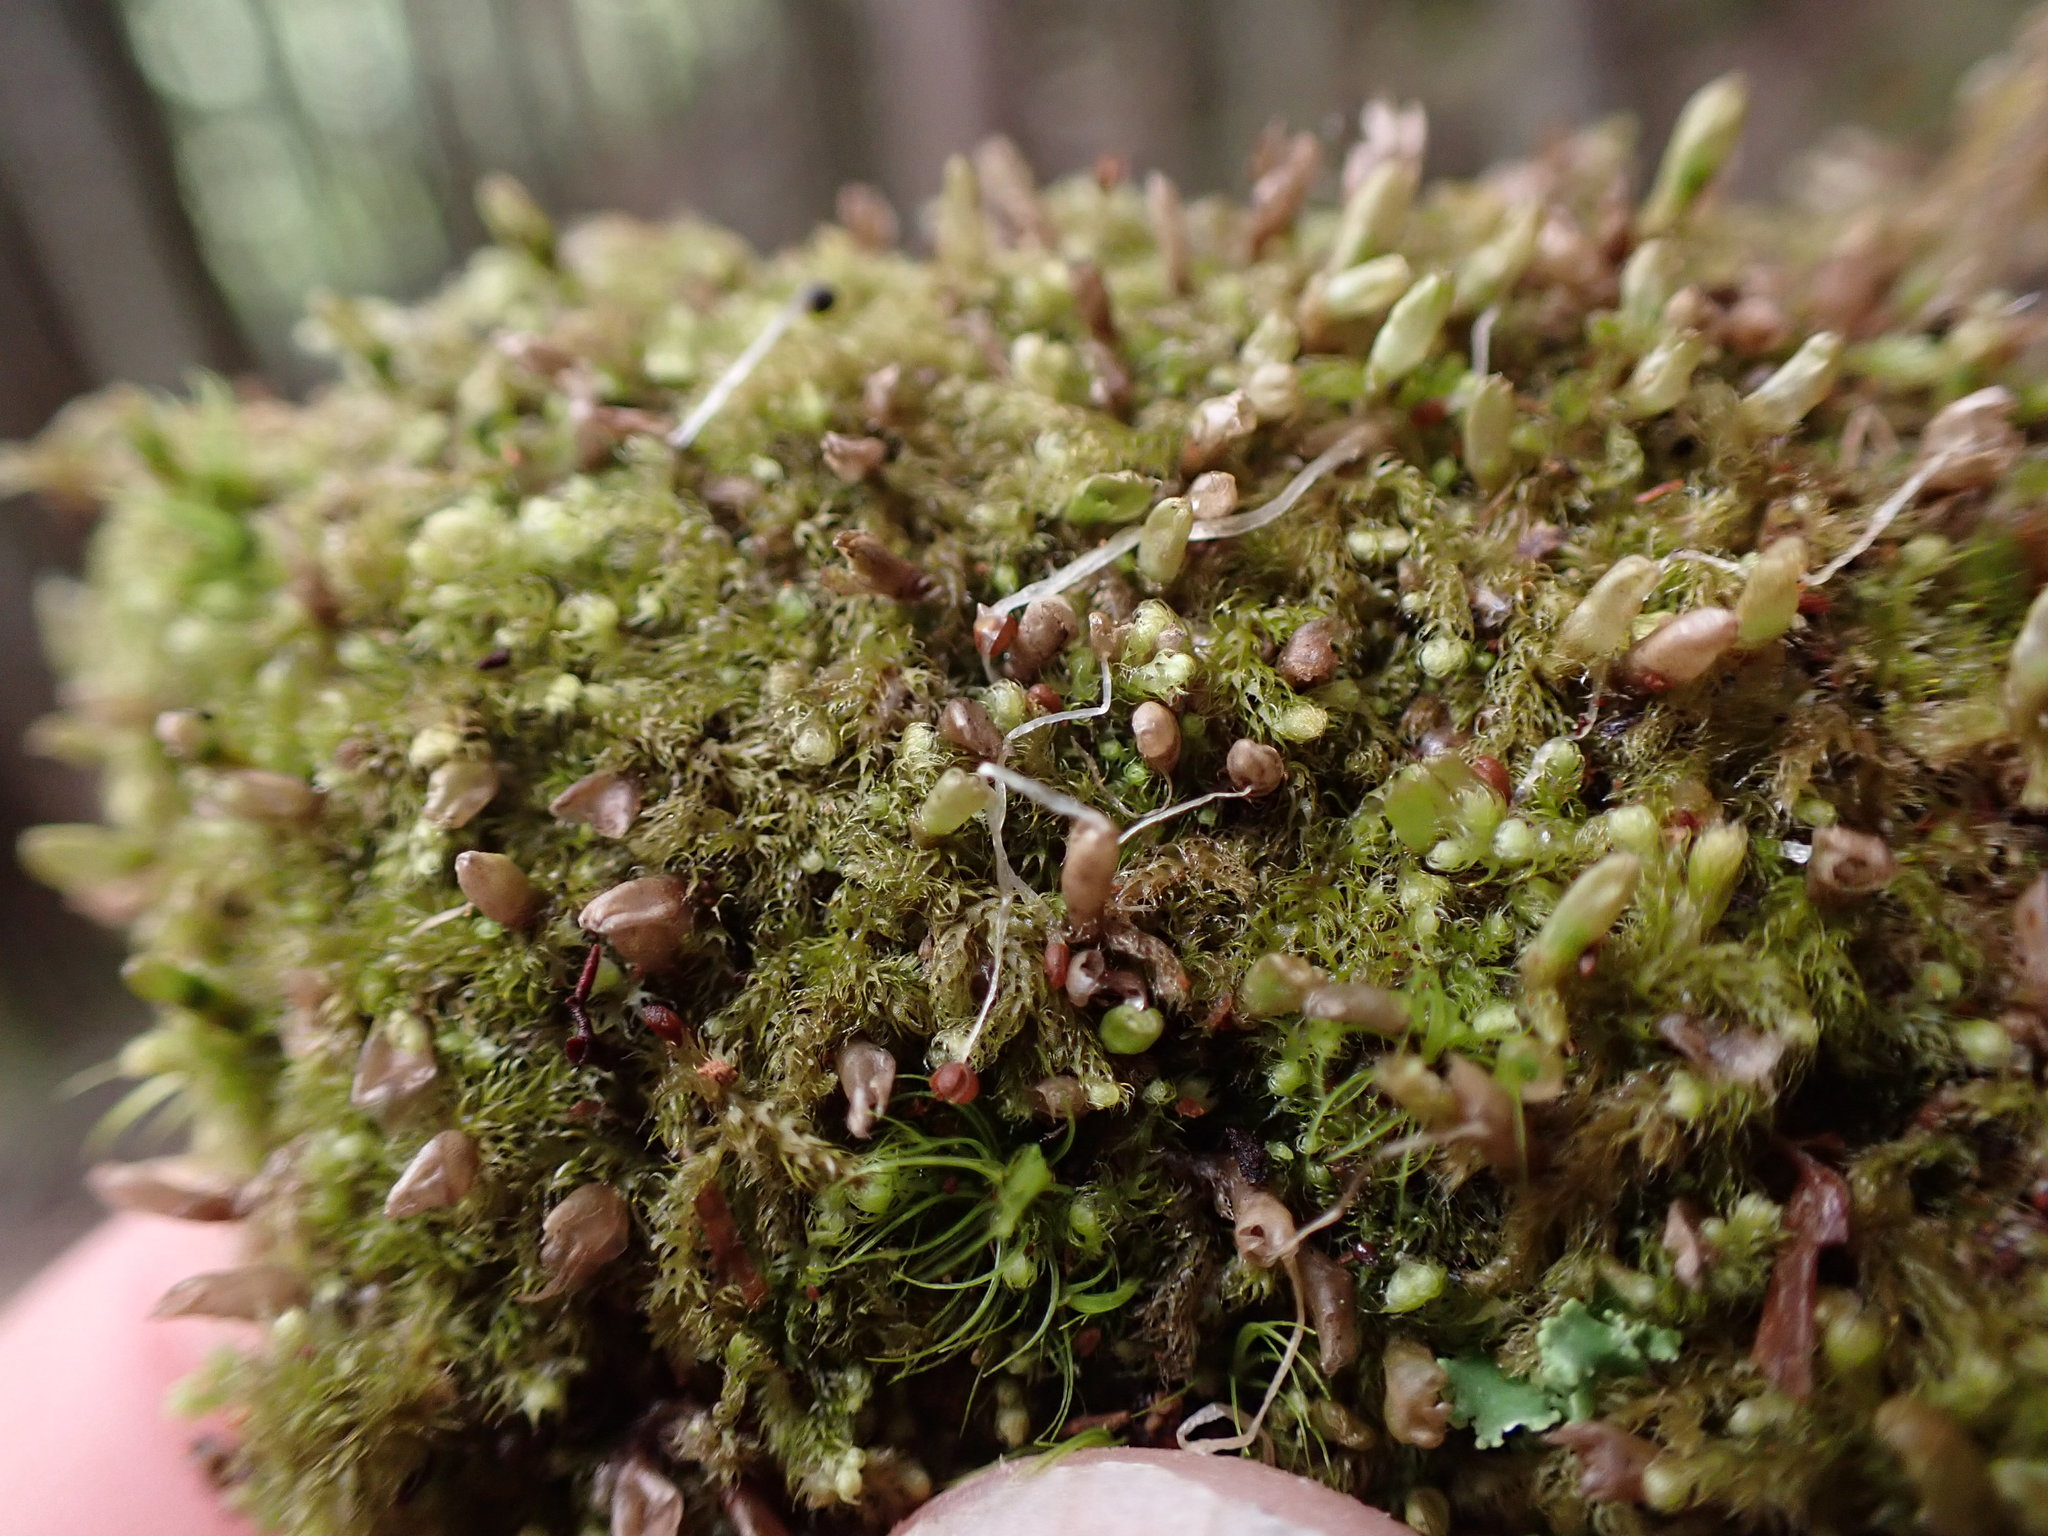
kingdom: Plantae
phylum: Marchantiophyta
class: Jungermanniopsida
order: Ptilidiales
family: Ptilidiaceae
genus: Ptilidium
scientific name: Ptilidium californicum
